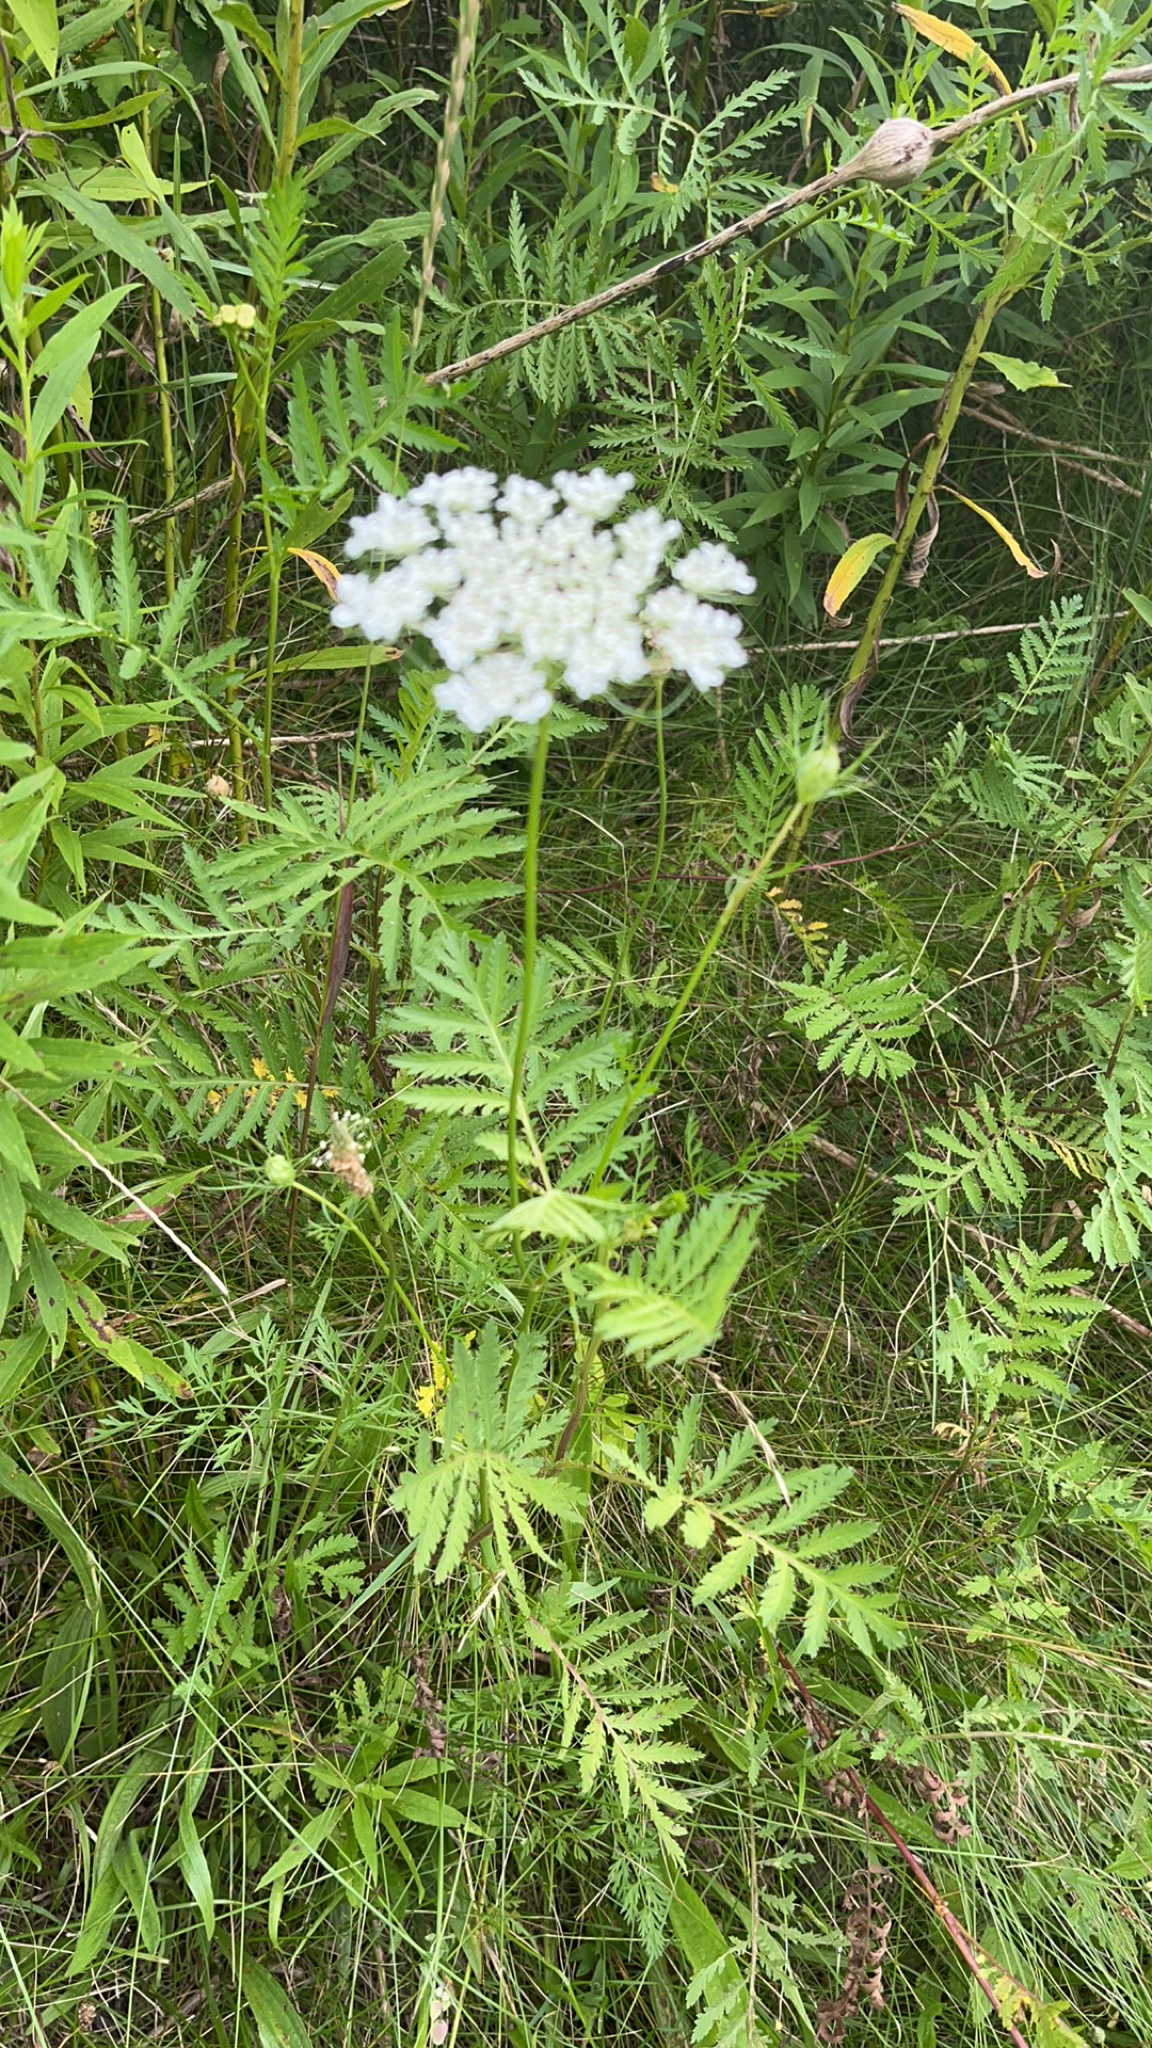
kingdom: Plantae
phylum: Tracheophyta
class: Magnoliopsida
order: Apiales
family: Apiaceae
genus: Daucus
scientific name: Daucus carota
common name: Wild carrot
